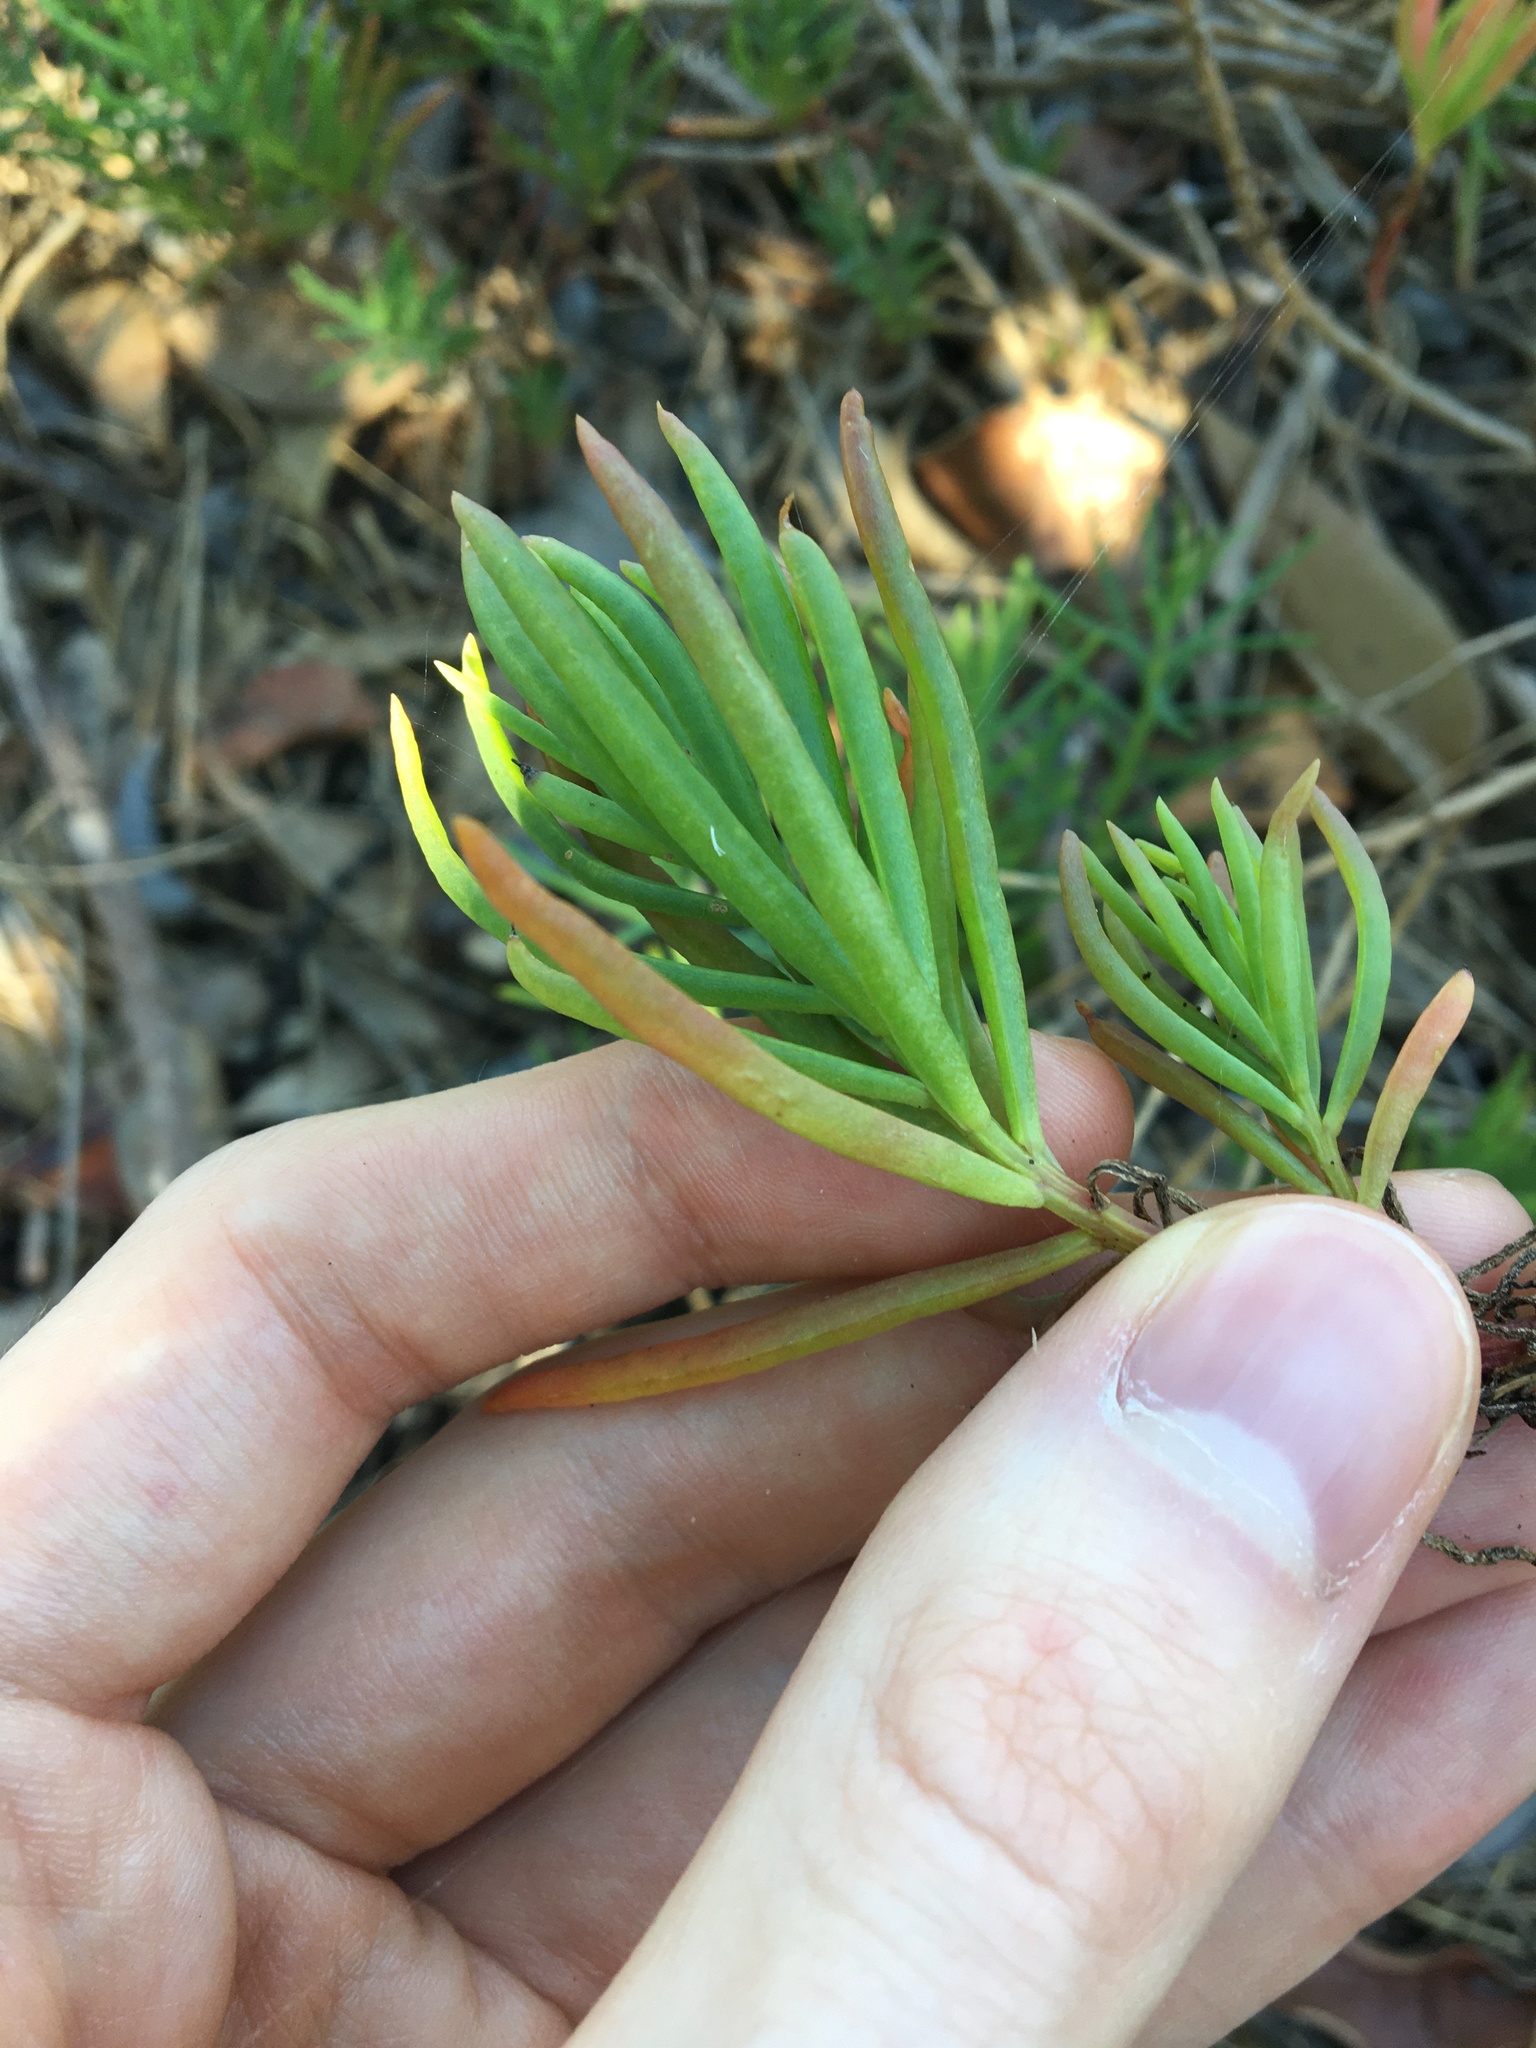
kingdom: Plantae
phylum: Tracheophyta
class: Magnoliopsida
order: Caryophyllales
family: Amaranthaceae
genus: Suaeda
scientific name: Suaeda australis
